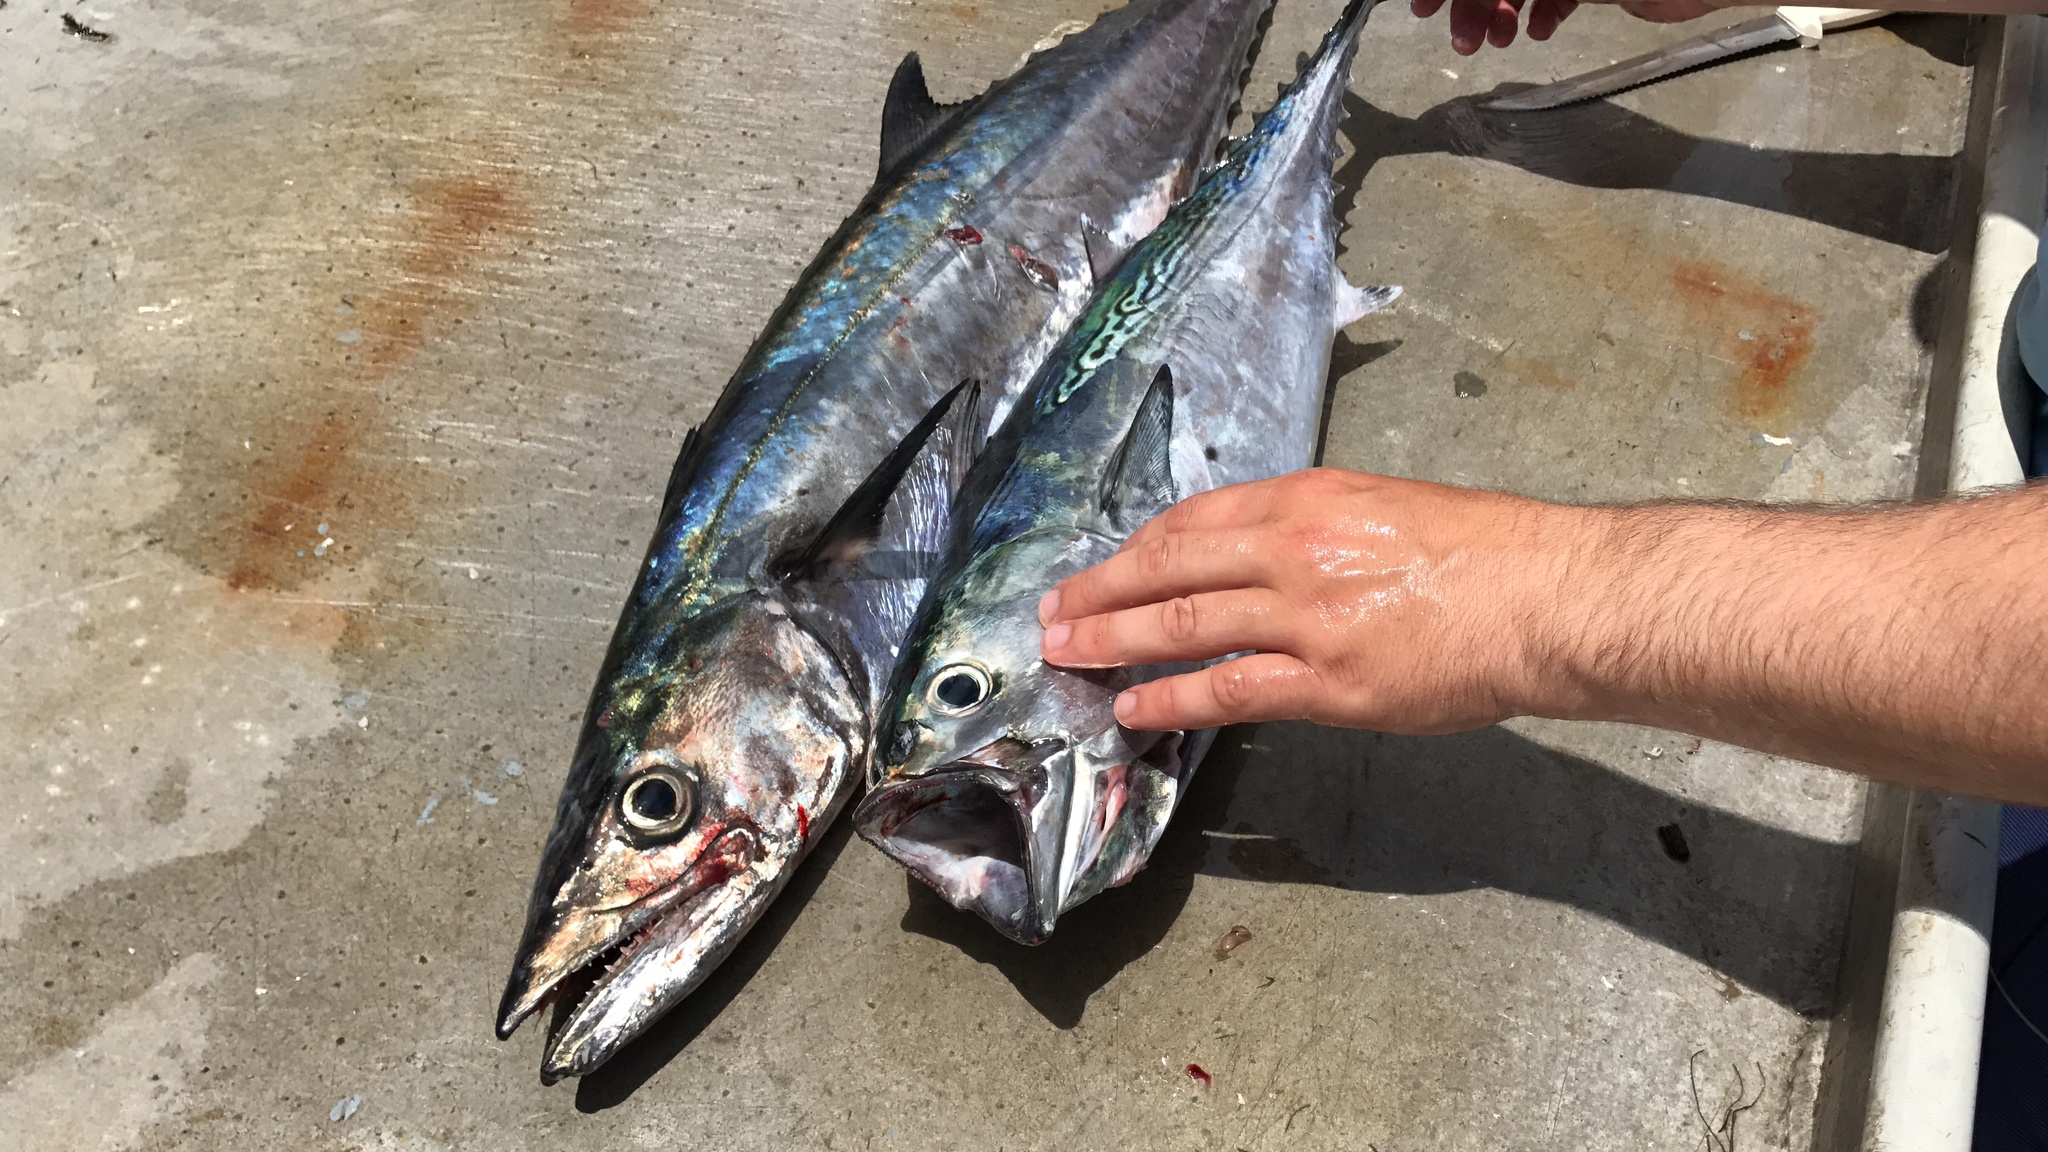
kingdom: Animalia
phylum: Chordata
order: Perciformes
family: Scombridae
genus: Scomberomorus
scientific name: Scomberomorus cavalla
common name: King mackerel
